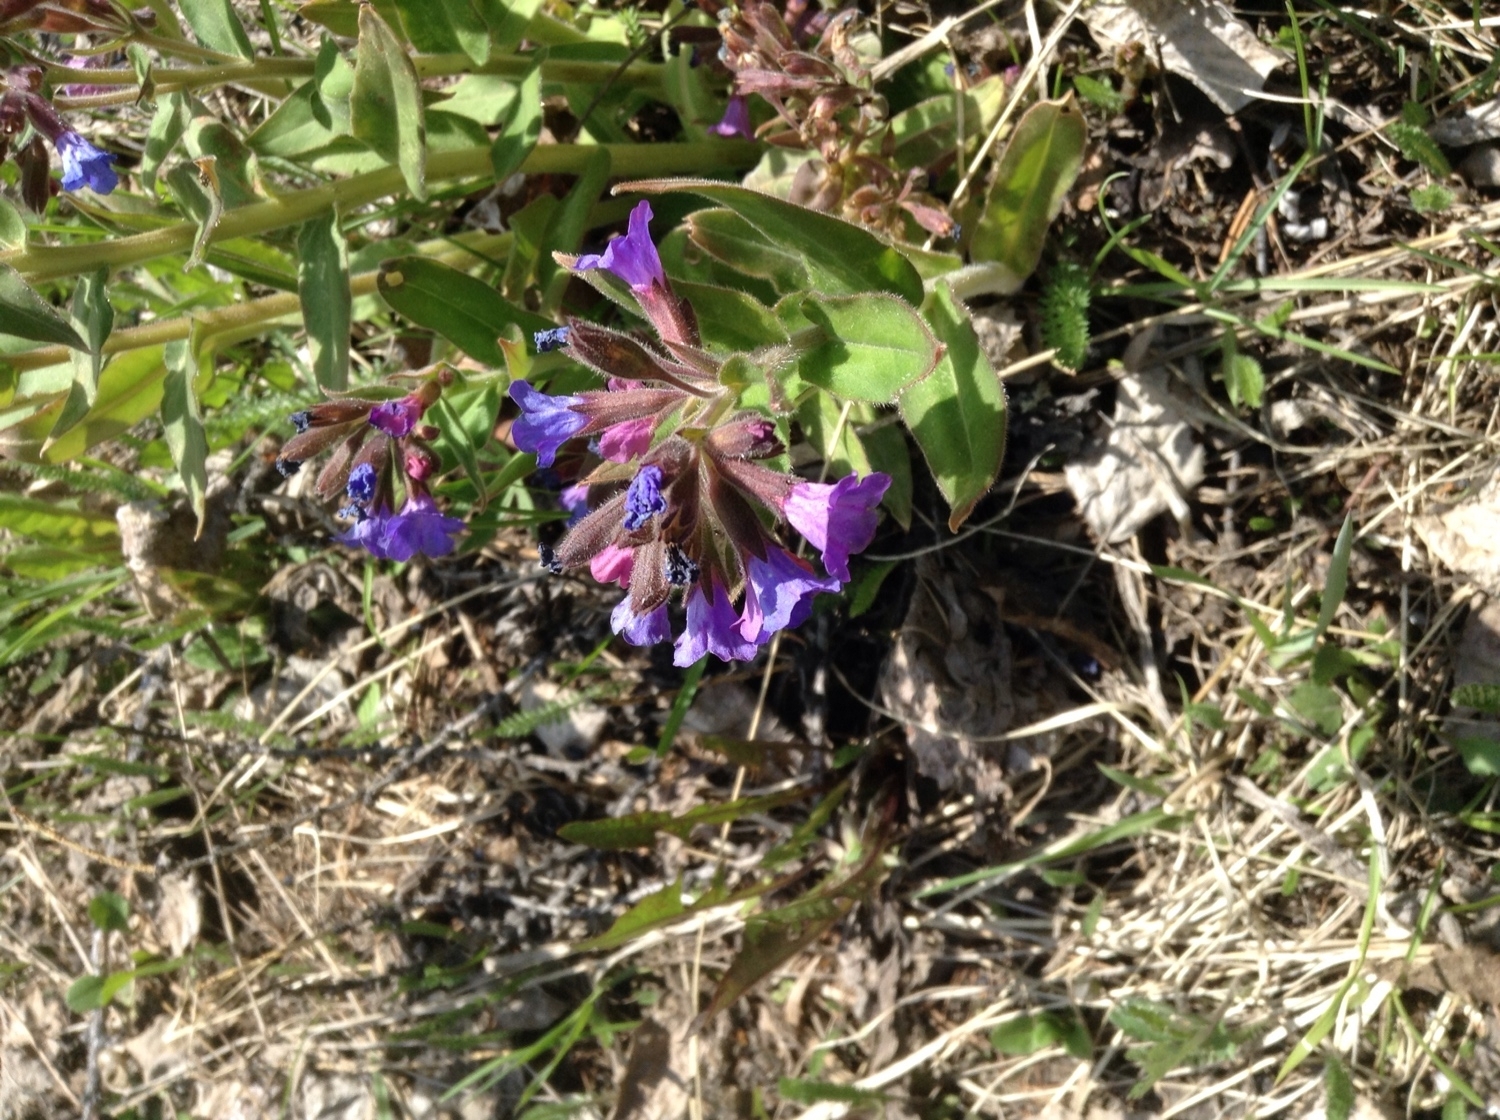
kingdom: Plantae
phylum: Tracheophyta
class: Magnoliopsida
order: Boraginales
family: Boraginaceae
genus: Pulmonaria
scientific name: Pulmonaria mollis
